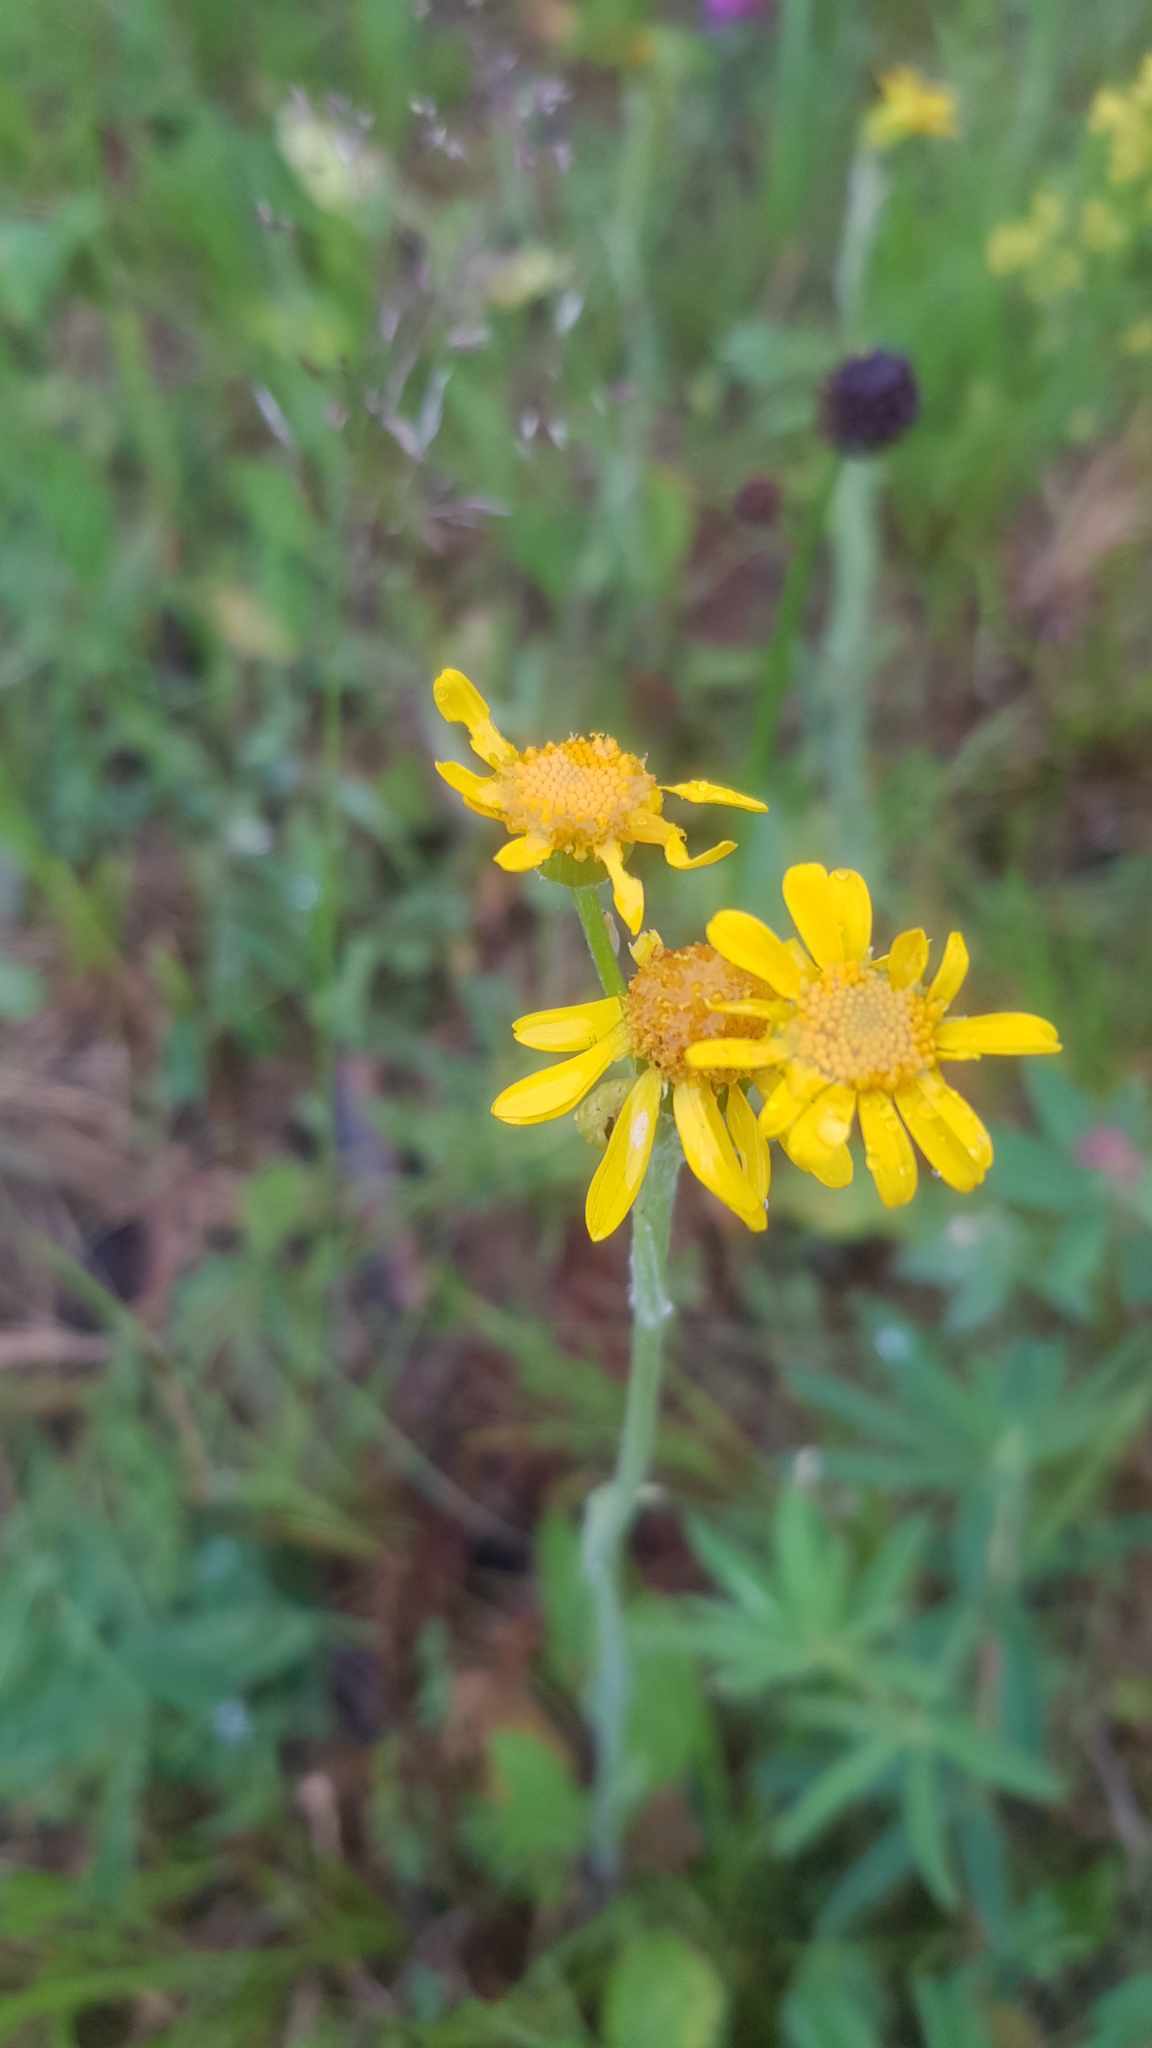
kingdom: Plantae
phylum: Tracheophyta
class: Magnoliopsida
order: Asterales
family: Asteraceae
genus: Tephroseris
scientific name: Tephroseris integrifolia
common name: Field fleawort
